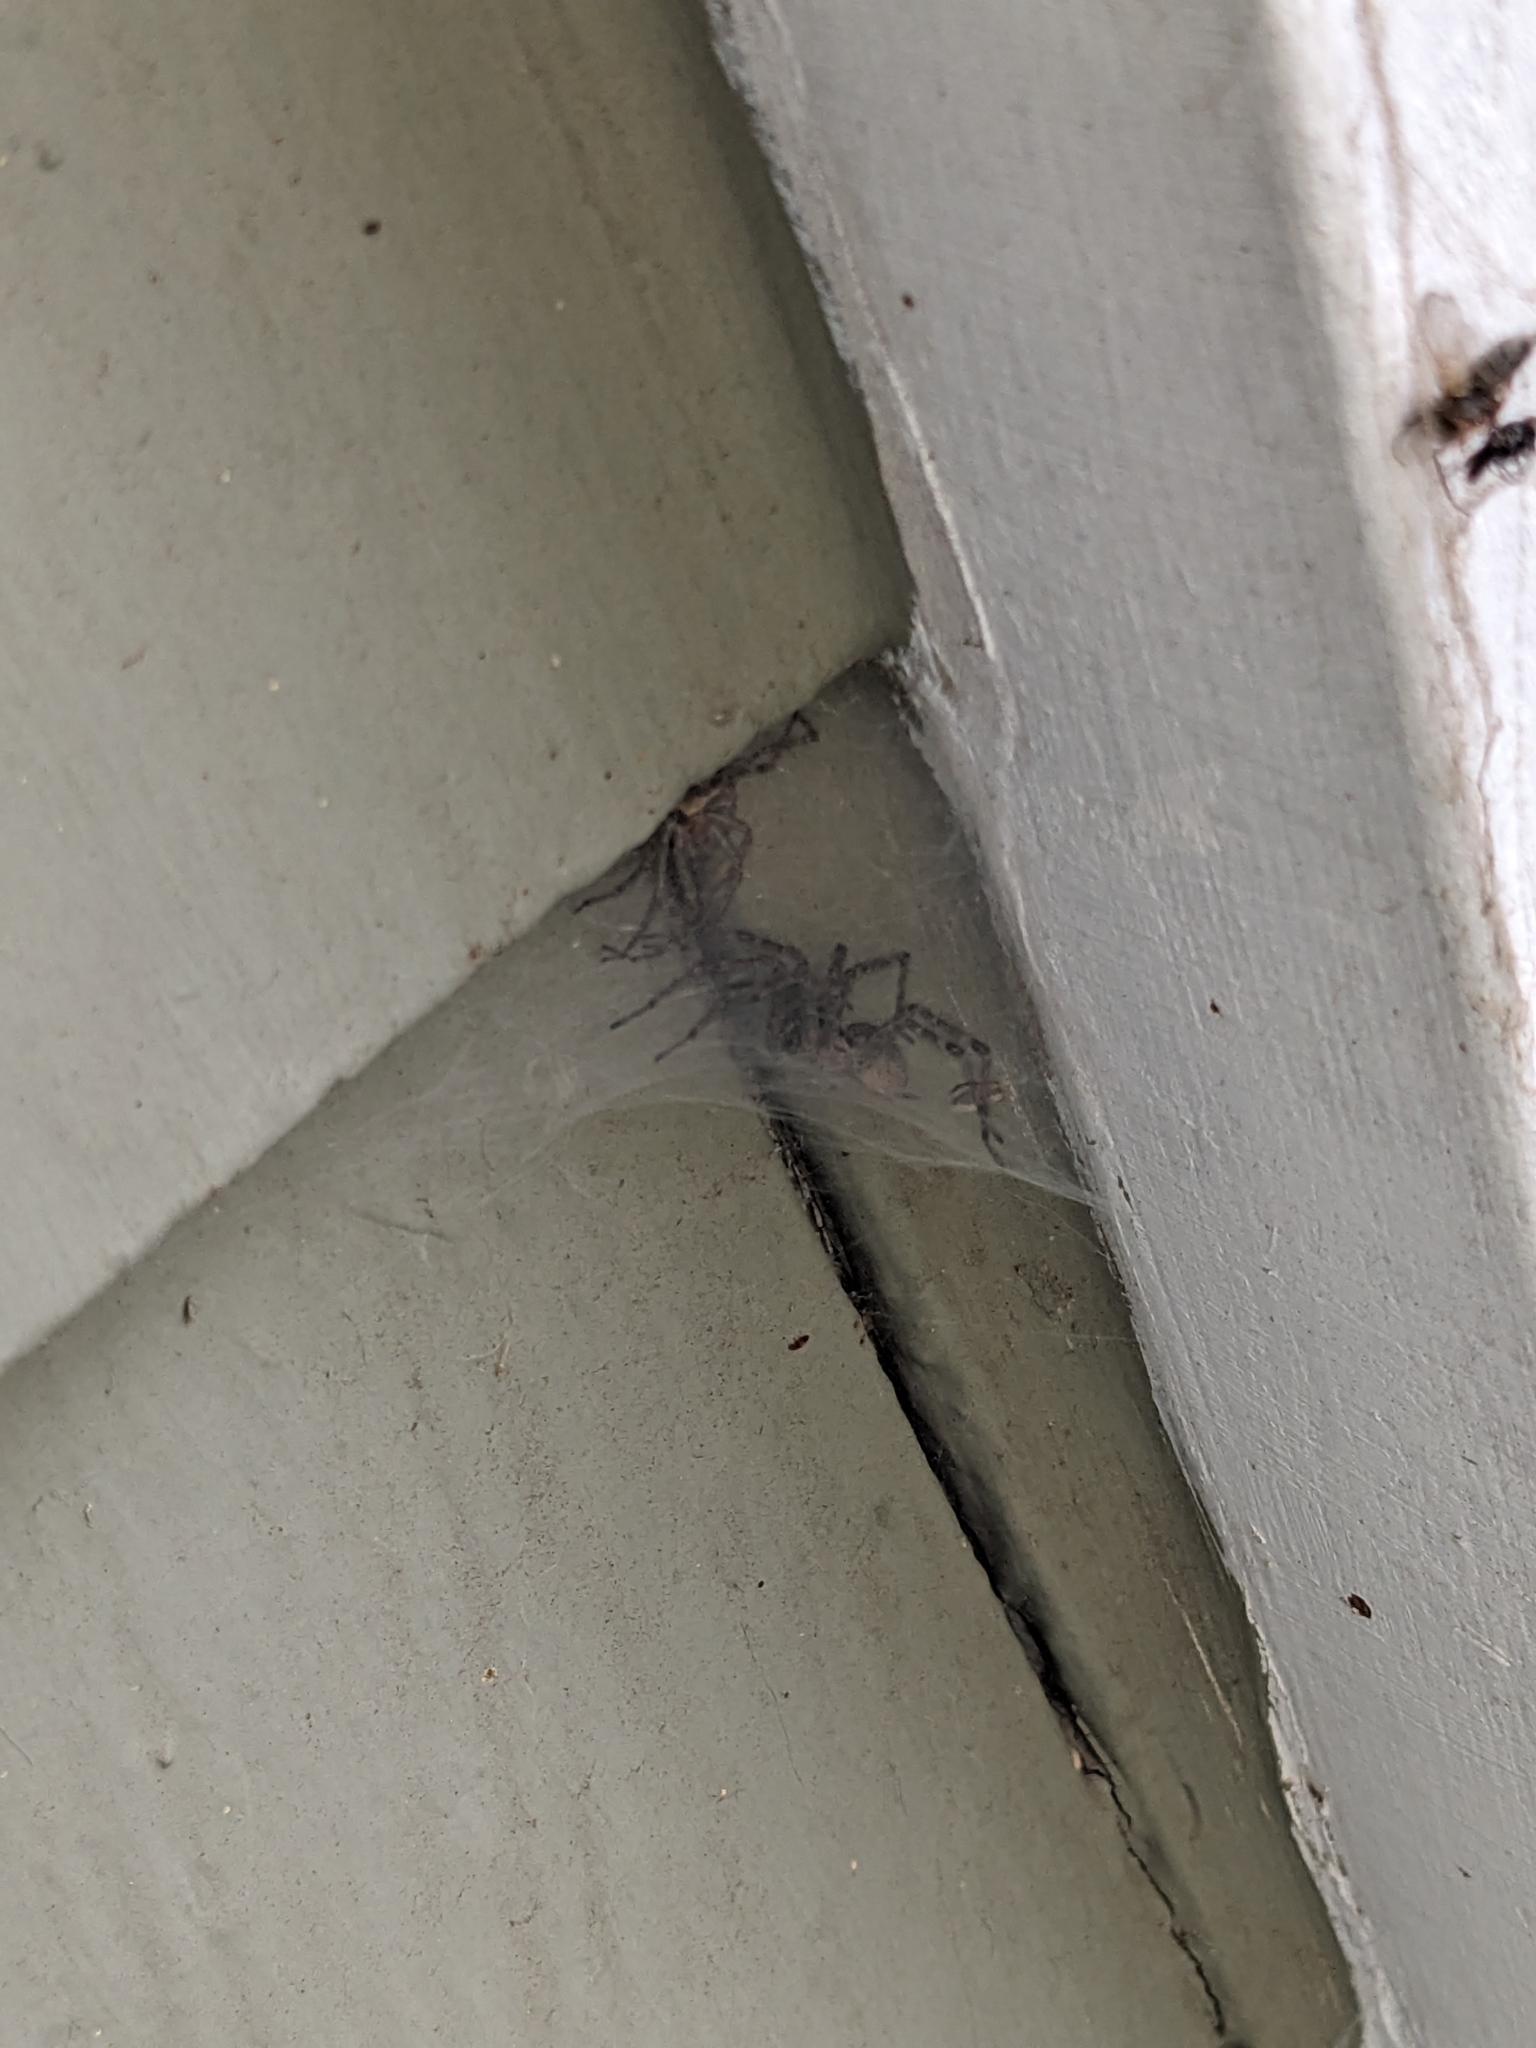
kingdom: Animalia
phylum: Arthropoda
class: Arachnida
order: Araneae
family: Agelenidae
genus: Agelenopsis
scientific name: Agelenopsis
